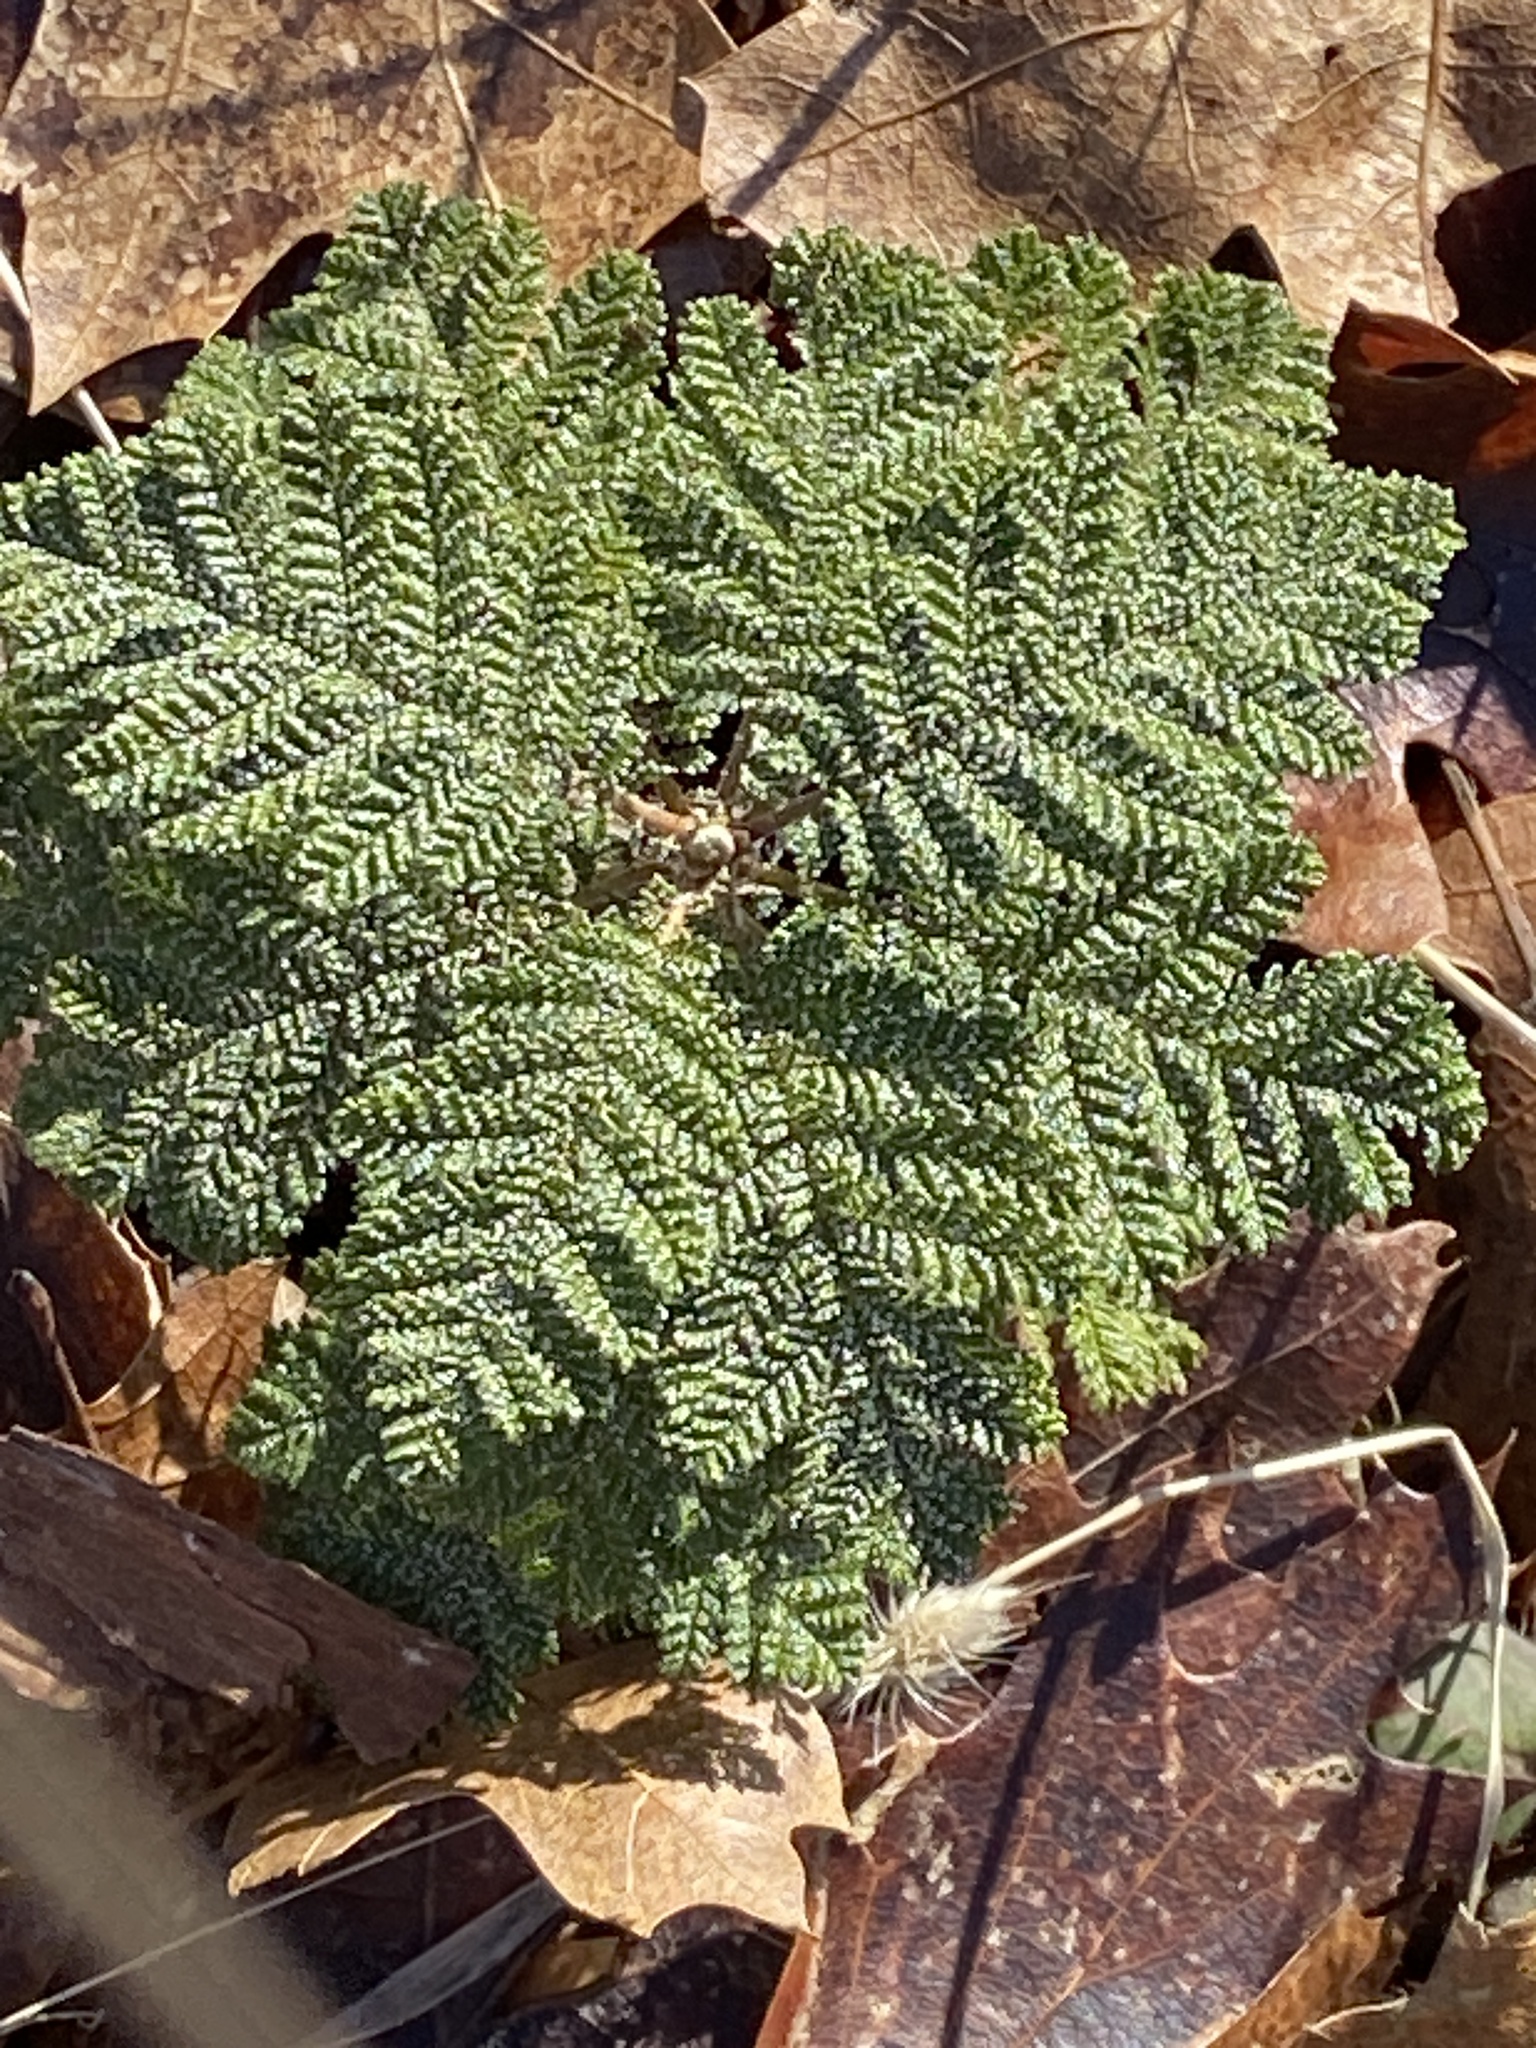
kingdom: Plantae
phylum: Tracheophyta
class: Magnoliopsida
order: Rosales
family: Rosaceae
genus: Chamaebatia
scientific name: Chamaebatia foliolosa
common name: Mountain misery
